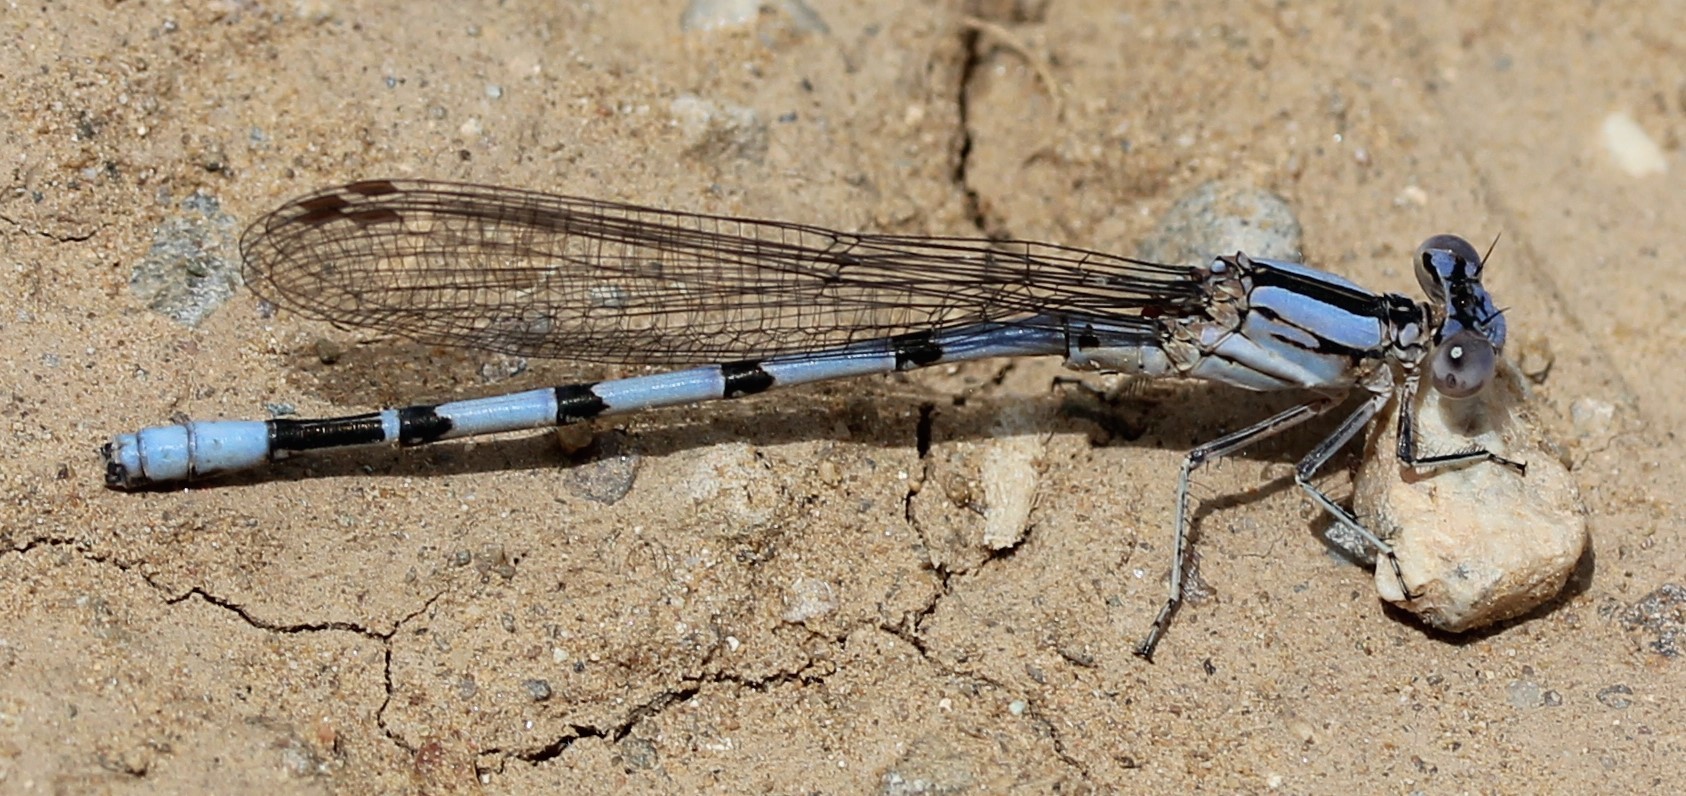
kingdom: Animalia
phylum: Arthropoda
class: Insecta
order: Odonata
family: Coenagrionidae
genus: Argia
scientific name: Argia nahuana
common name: Aztec dancer
